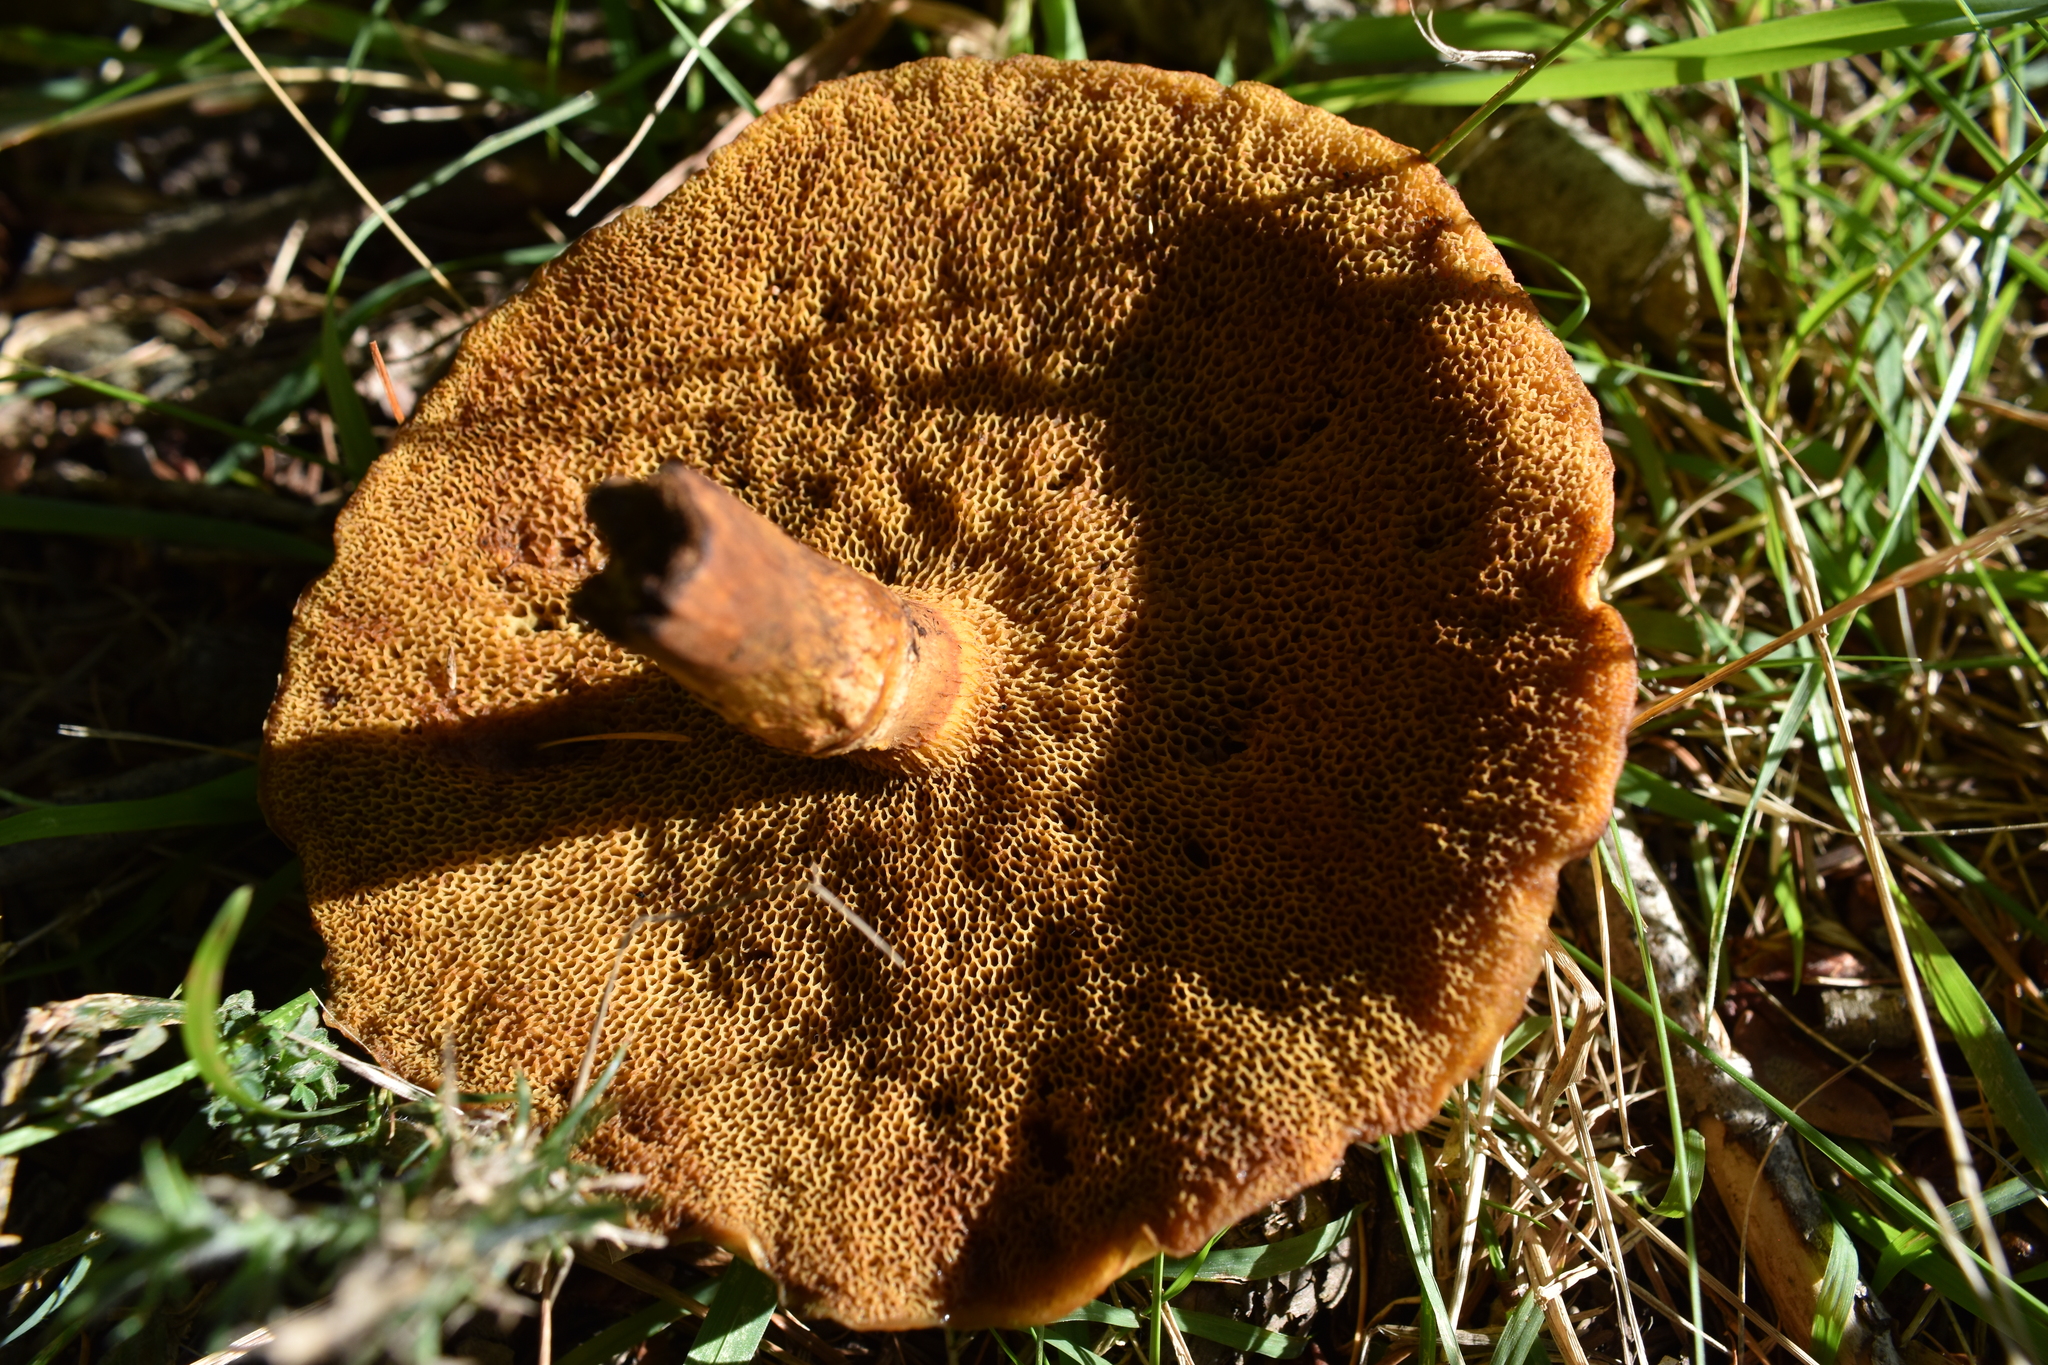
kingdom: Fungi
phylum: Basidiomycota
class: Agaricomycetes
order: Boletales
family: Suillaceae
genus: Suillus
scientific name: Suillus grevillei
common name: Larch bolete
